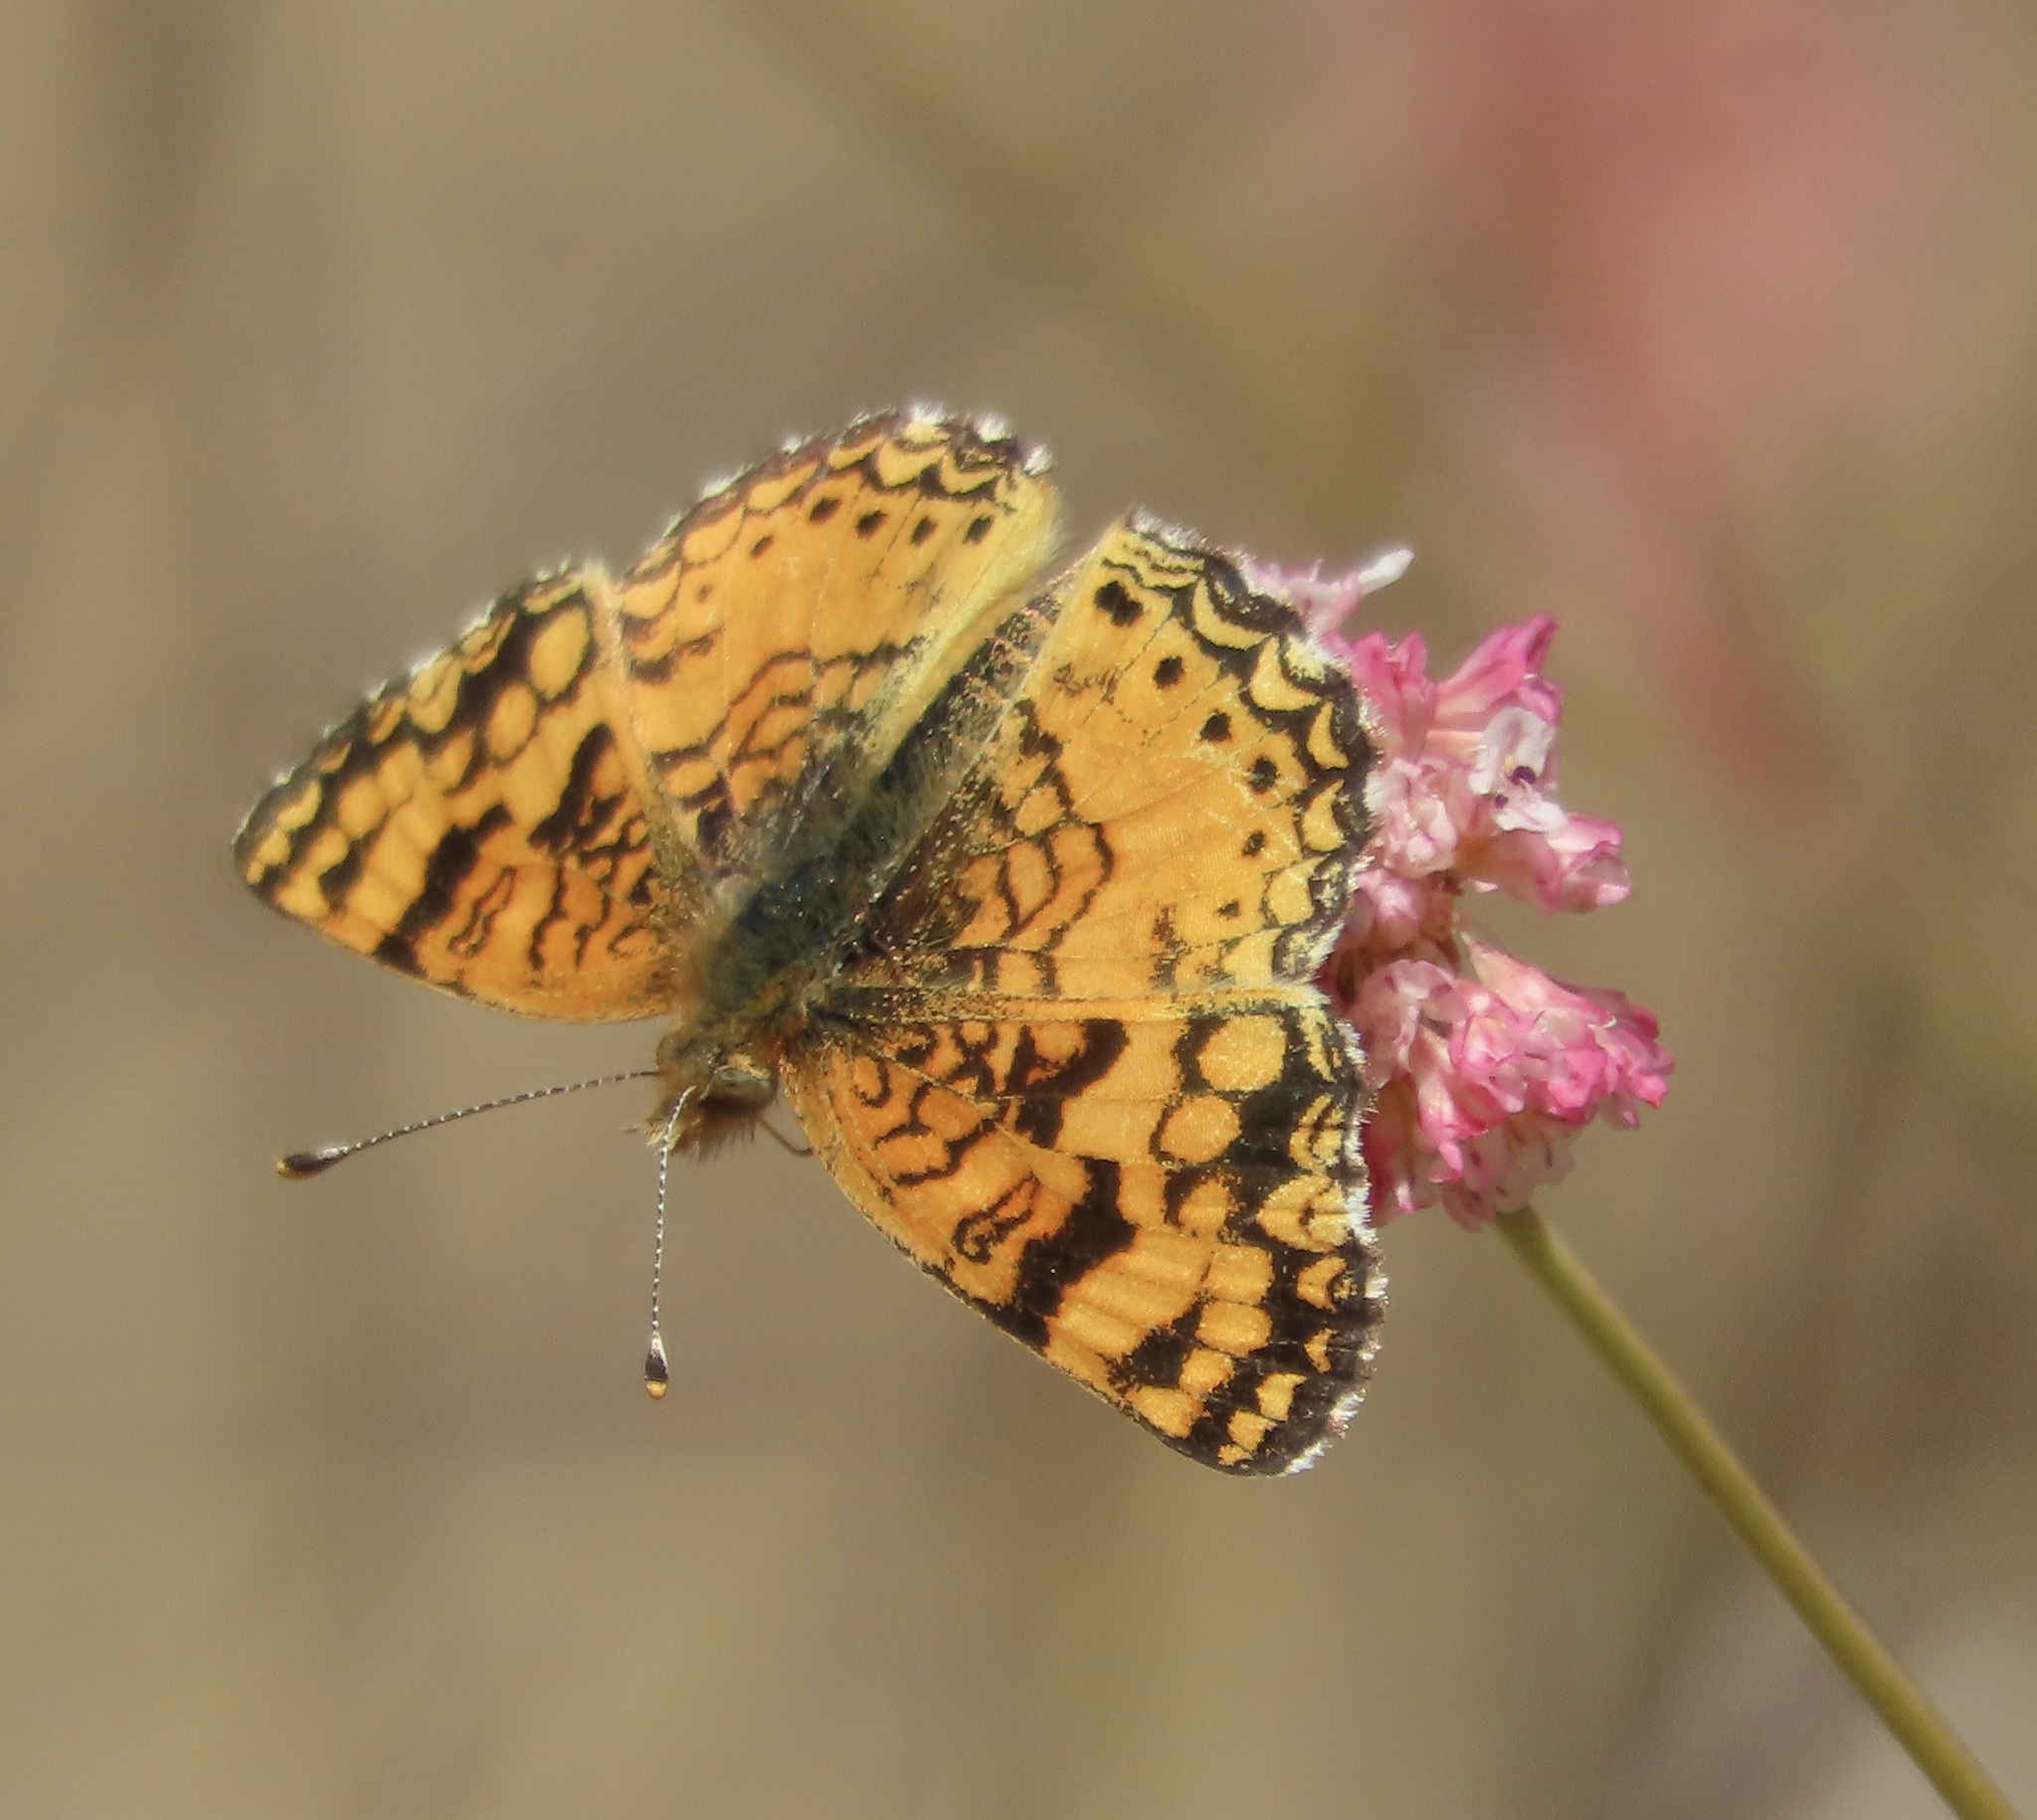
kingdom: Animalia
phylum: Arthropoda
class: Insecta
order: Lepidoptera
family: Nymphalidae
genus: Eresia
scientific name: Eresia aveyrona
